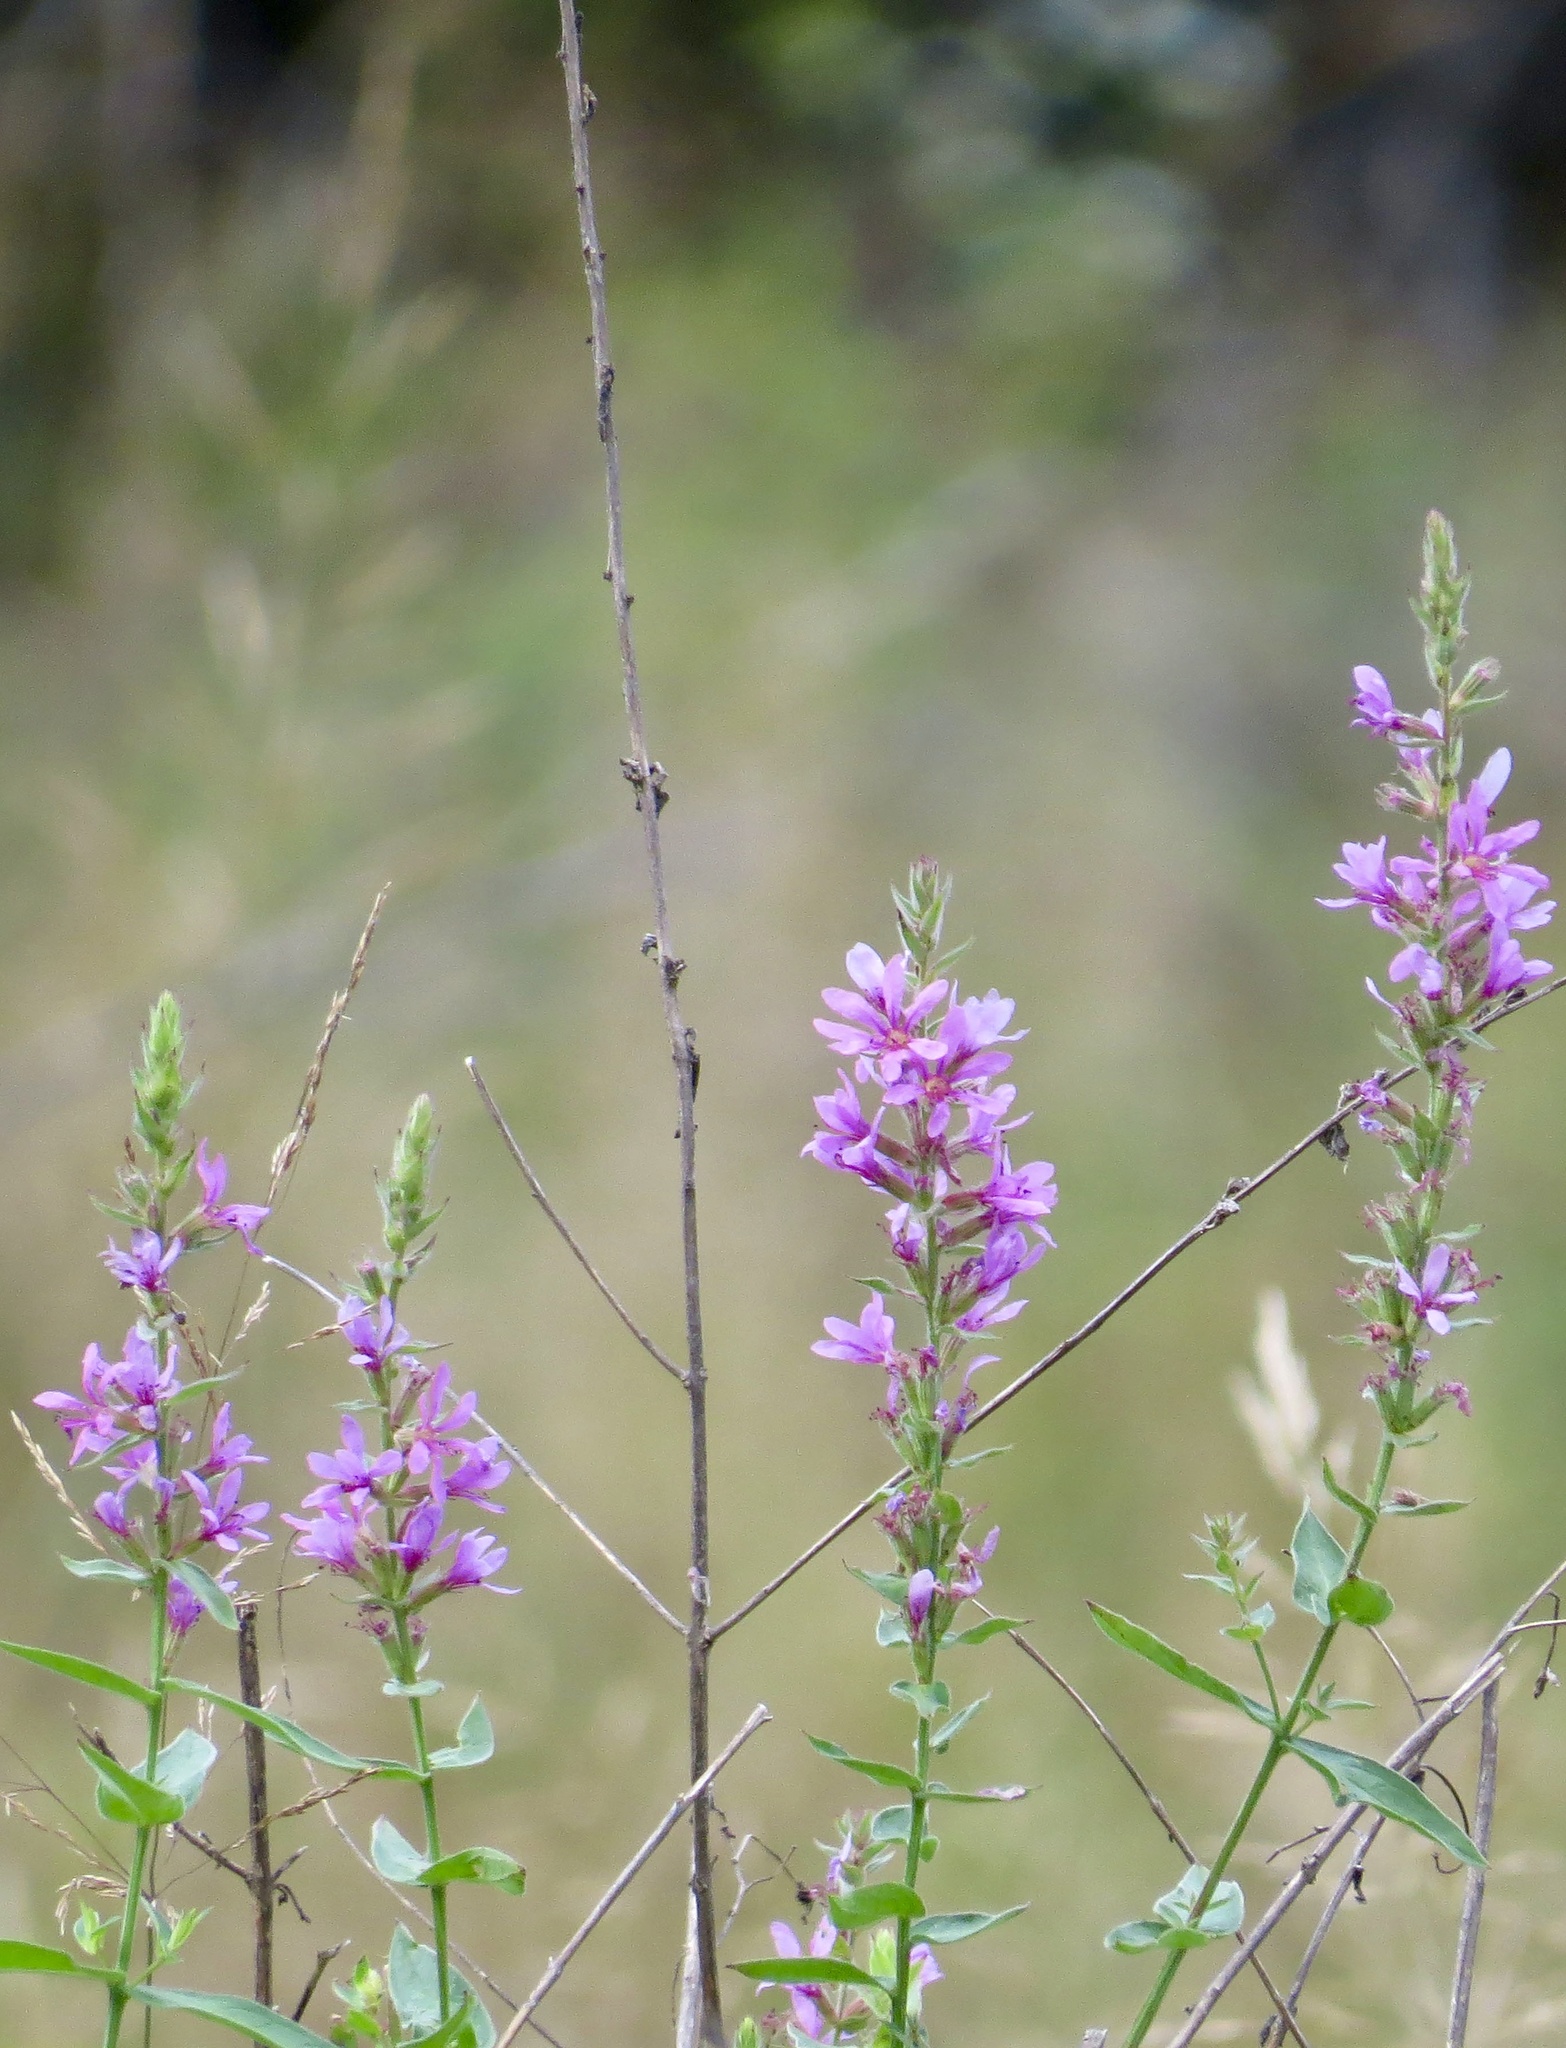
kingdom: Plantae
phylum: Tracheophyta
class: Magnoliopsida
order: Myrtales
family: Lythraceae
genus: Lythrum
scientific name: Lythrum salicaria
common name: Purple loosestrife
